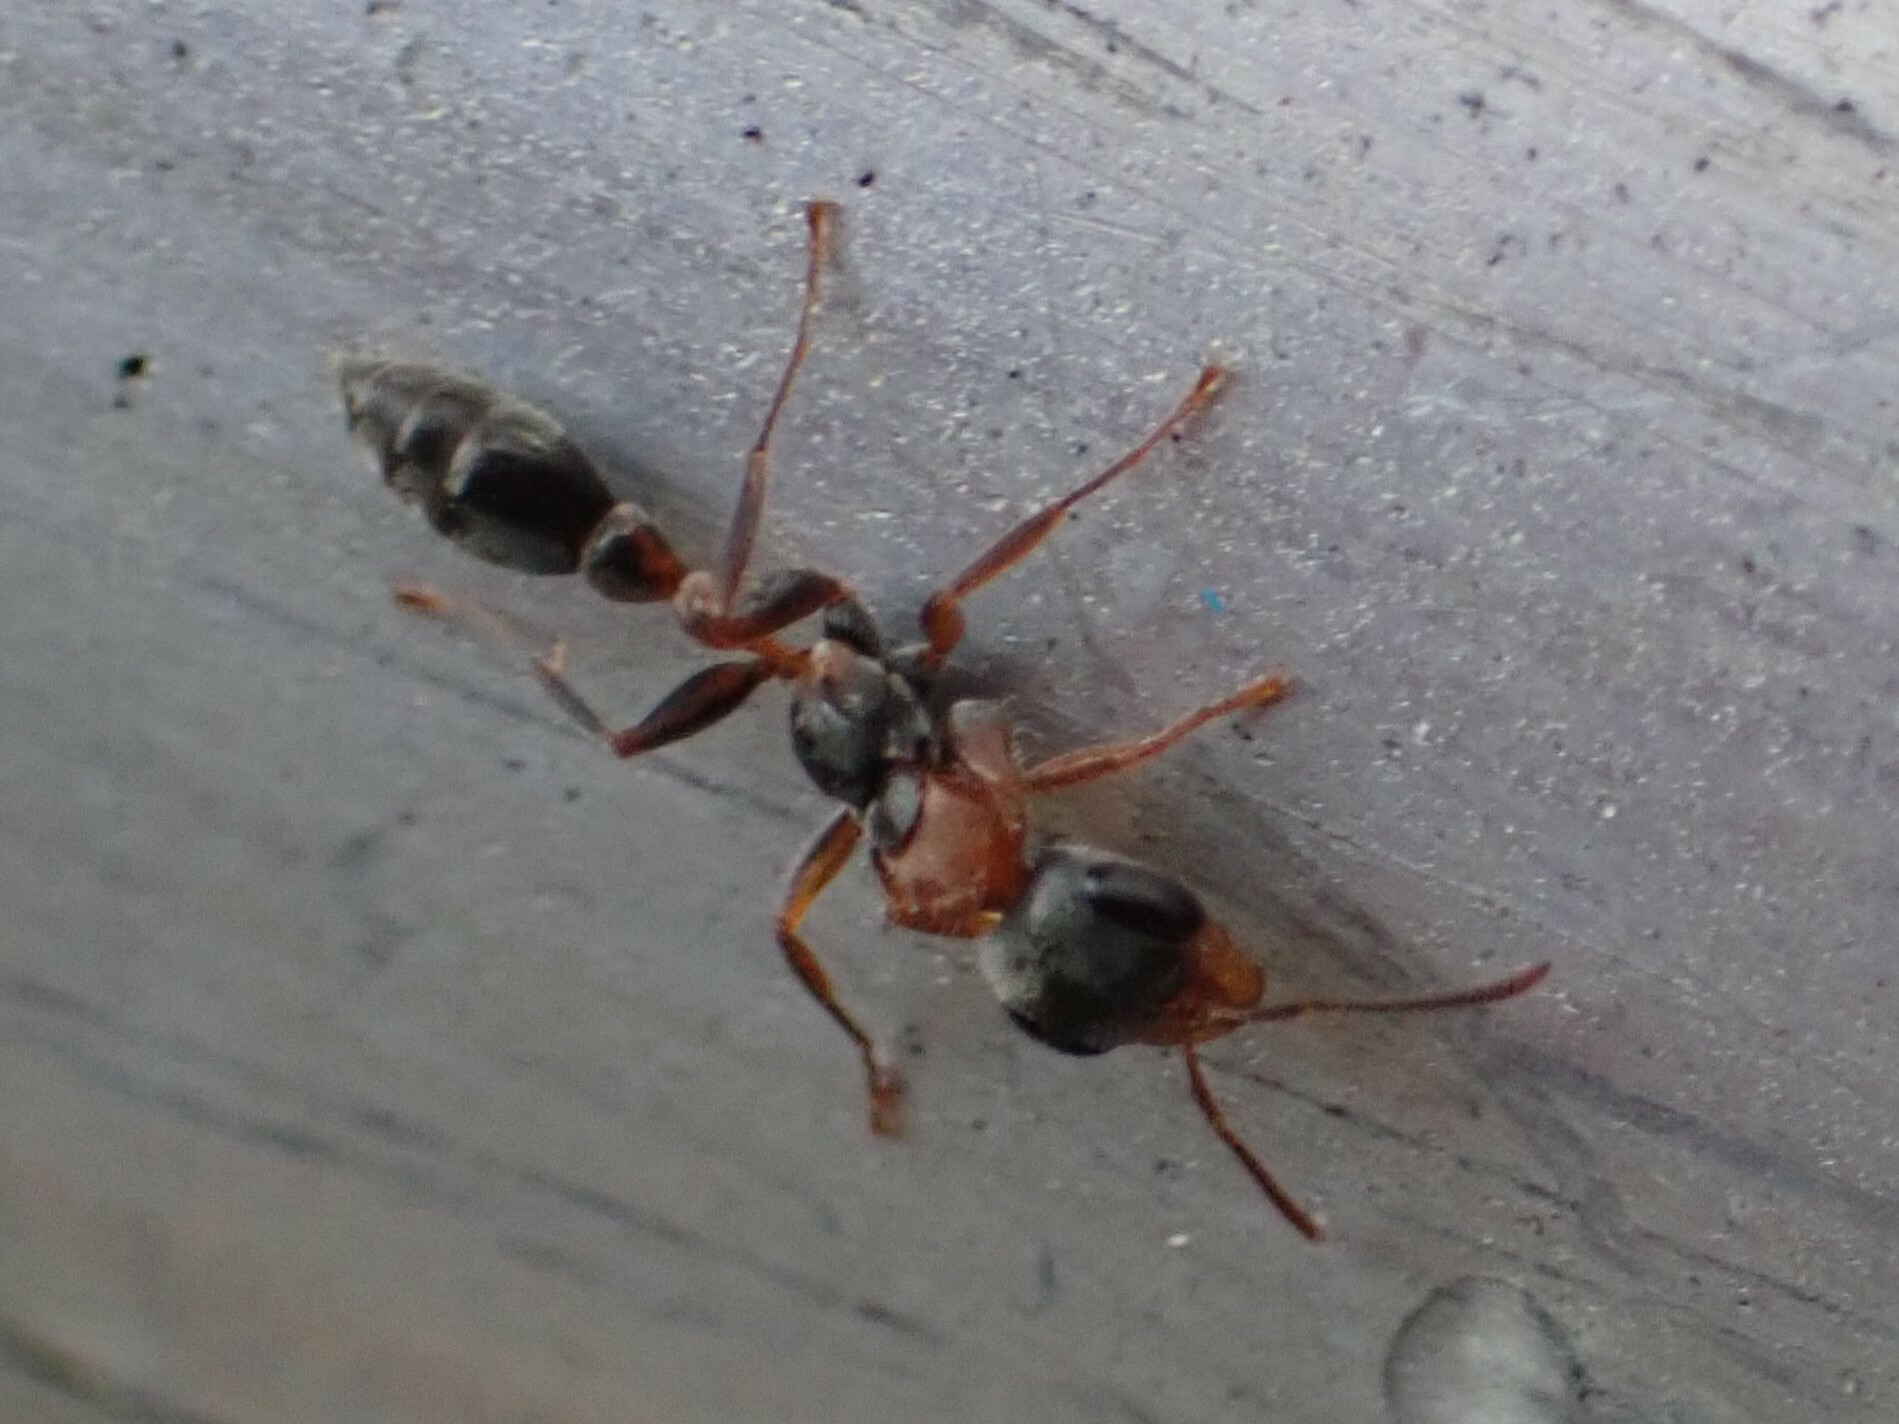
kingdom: Animalia
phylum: Arthropoda
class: Insecta
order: Hymenoptera
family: Formicidae
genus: Pseudomyrmex
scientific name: Pseudomyrmex gracilis
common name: Graceful twig ant
